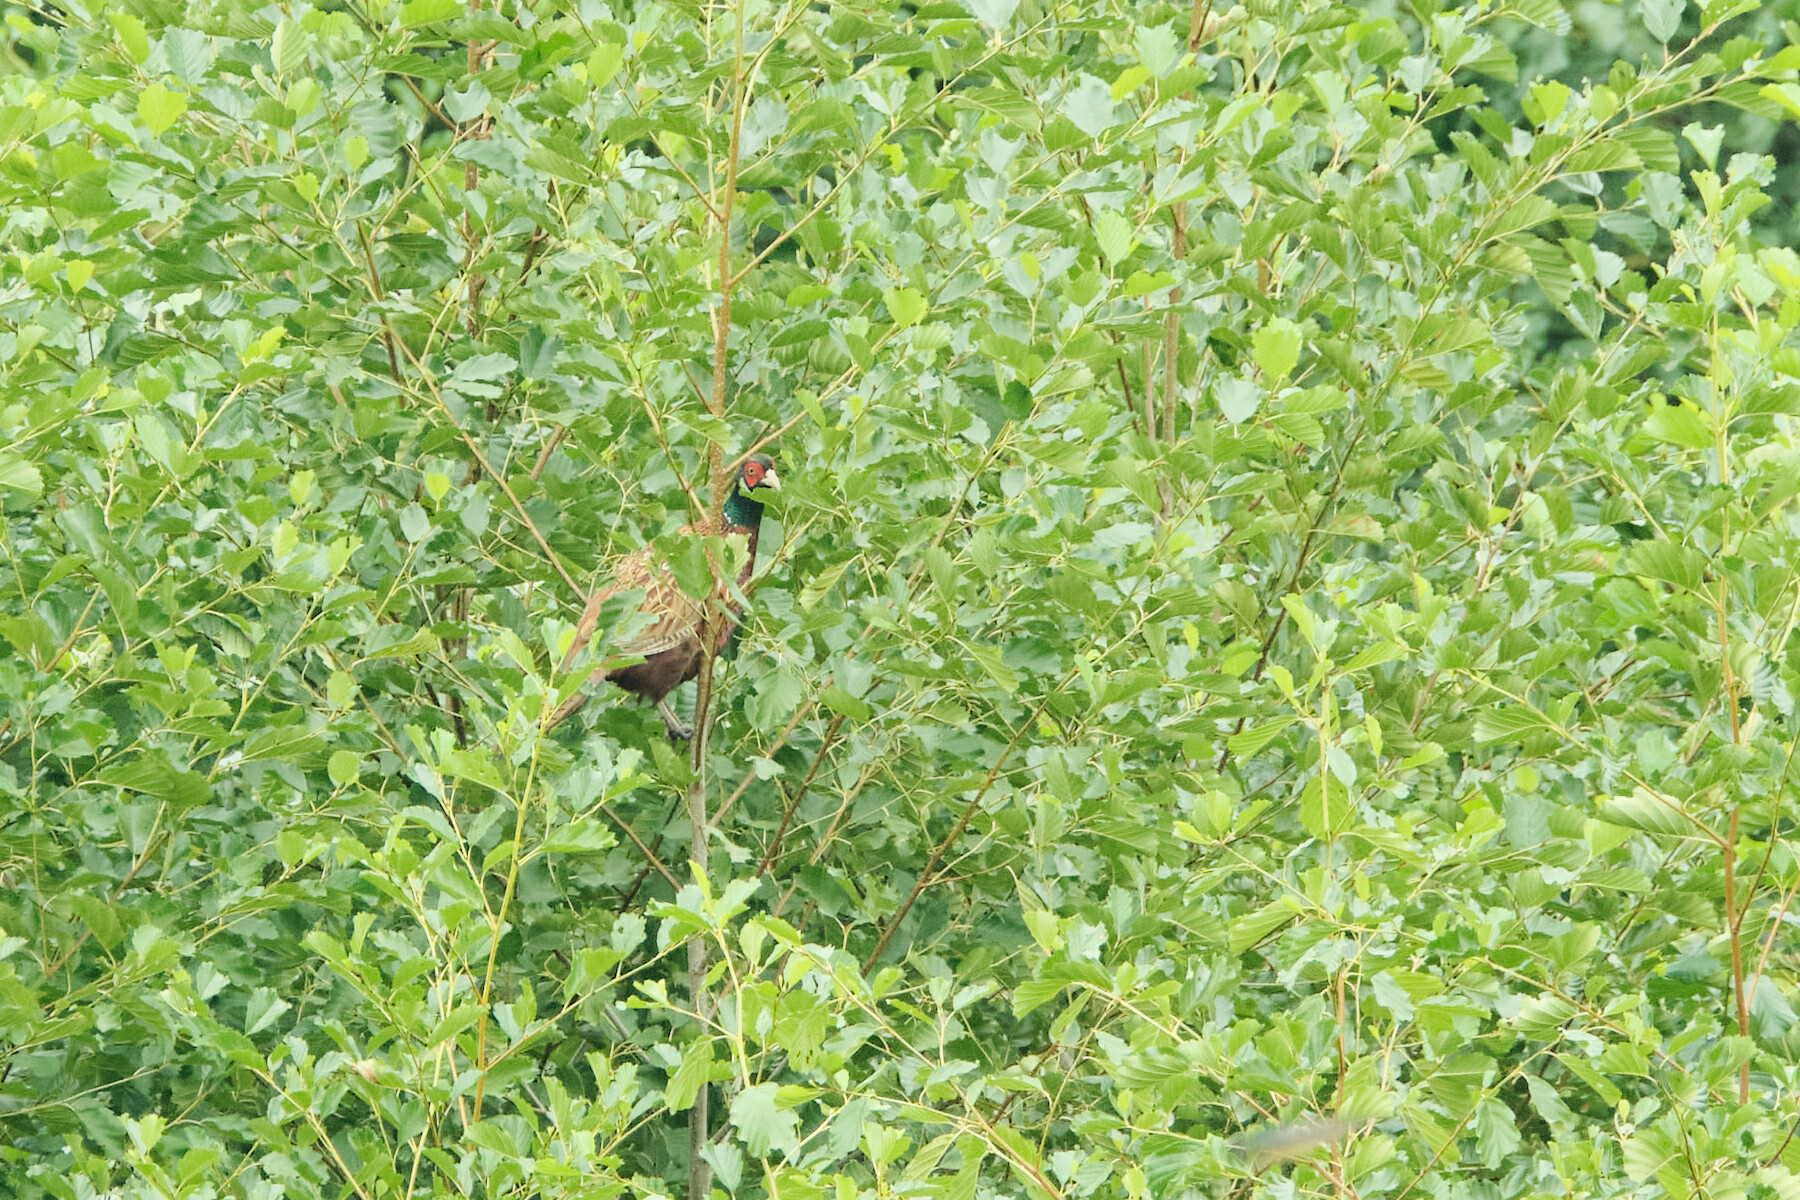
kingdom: Animalia
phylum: Chordata
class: Aves
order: Galliformes
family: Phasianidae
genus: Phasianus
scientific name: Phasianus colchicus
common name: Common pheasant
